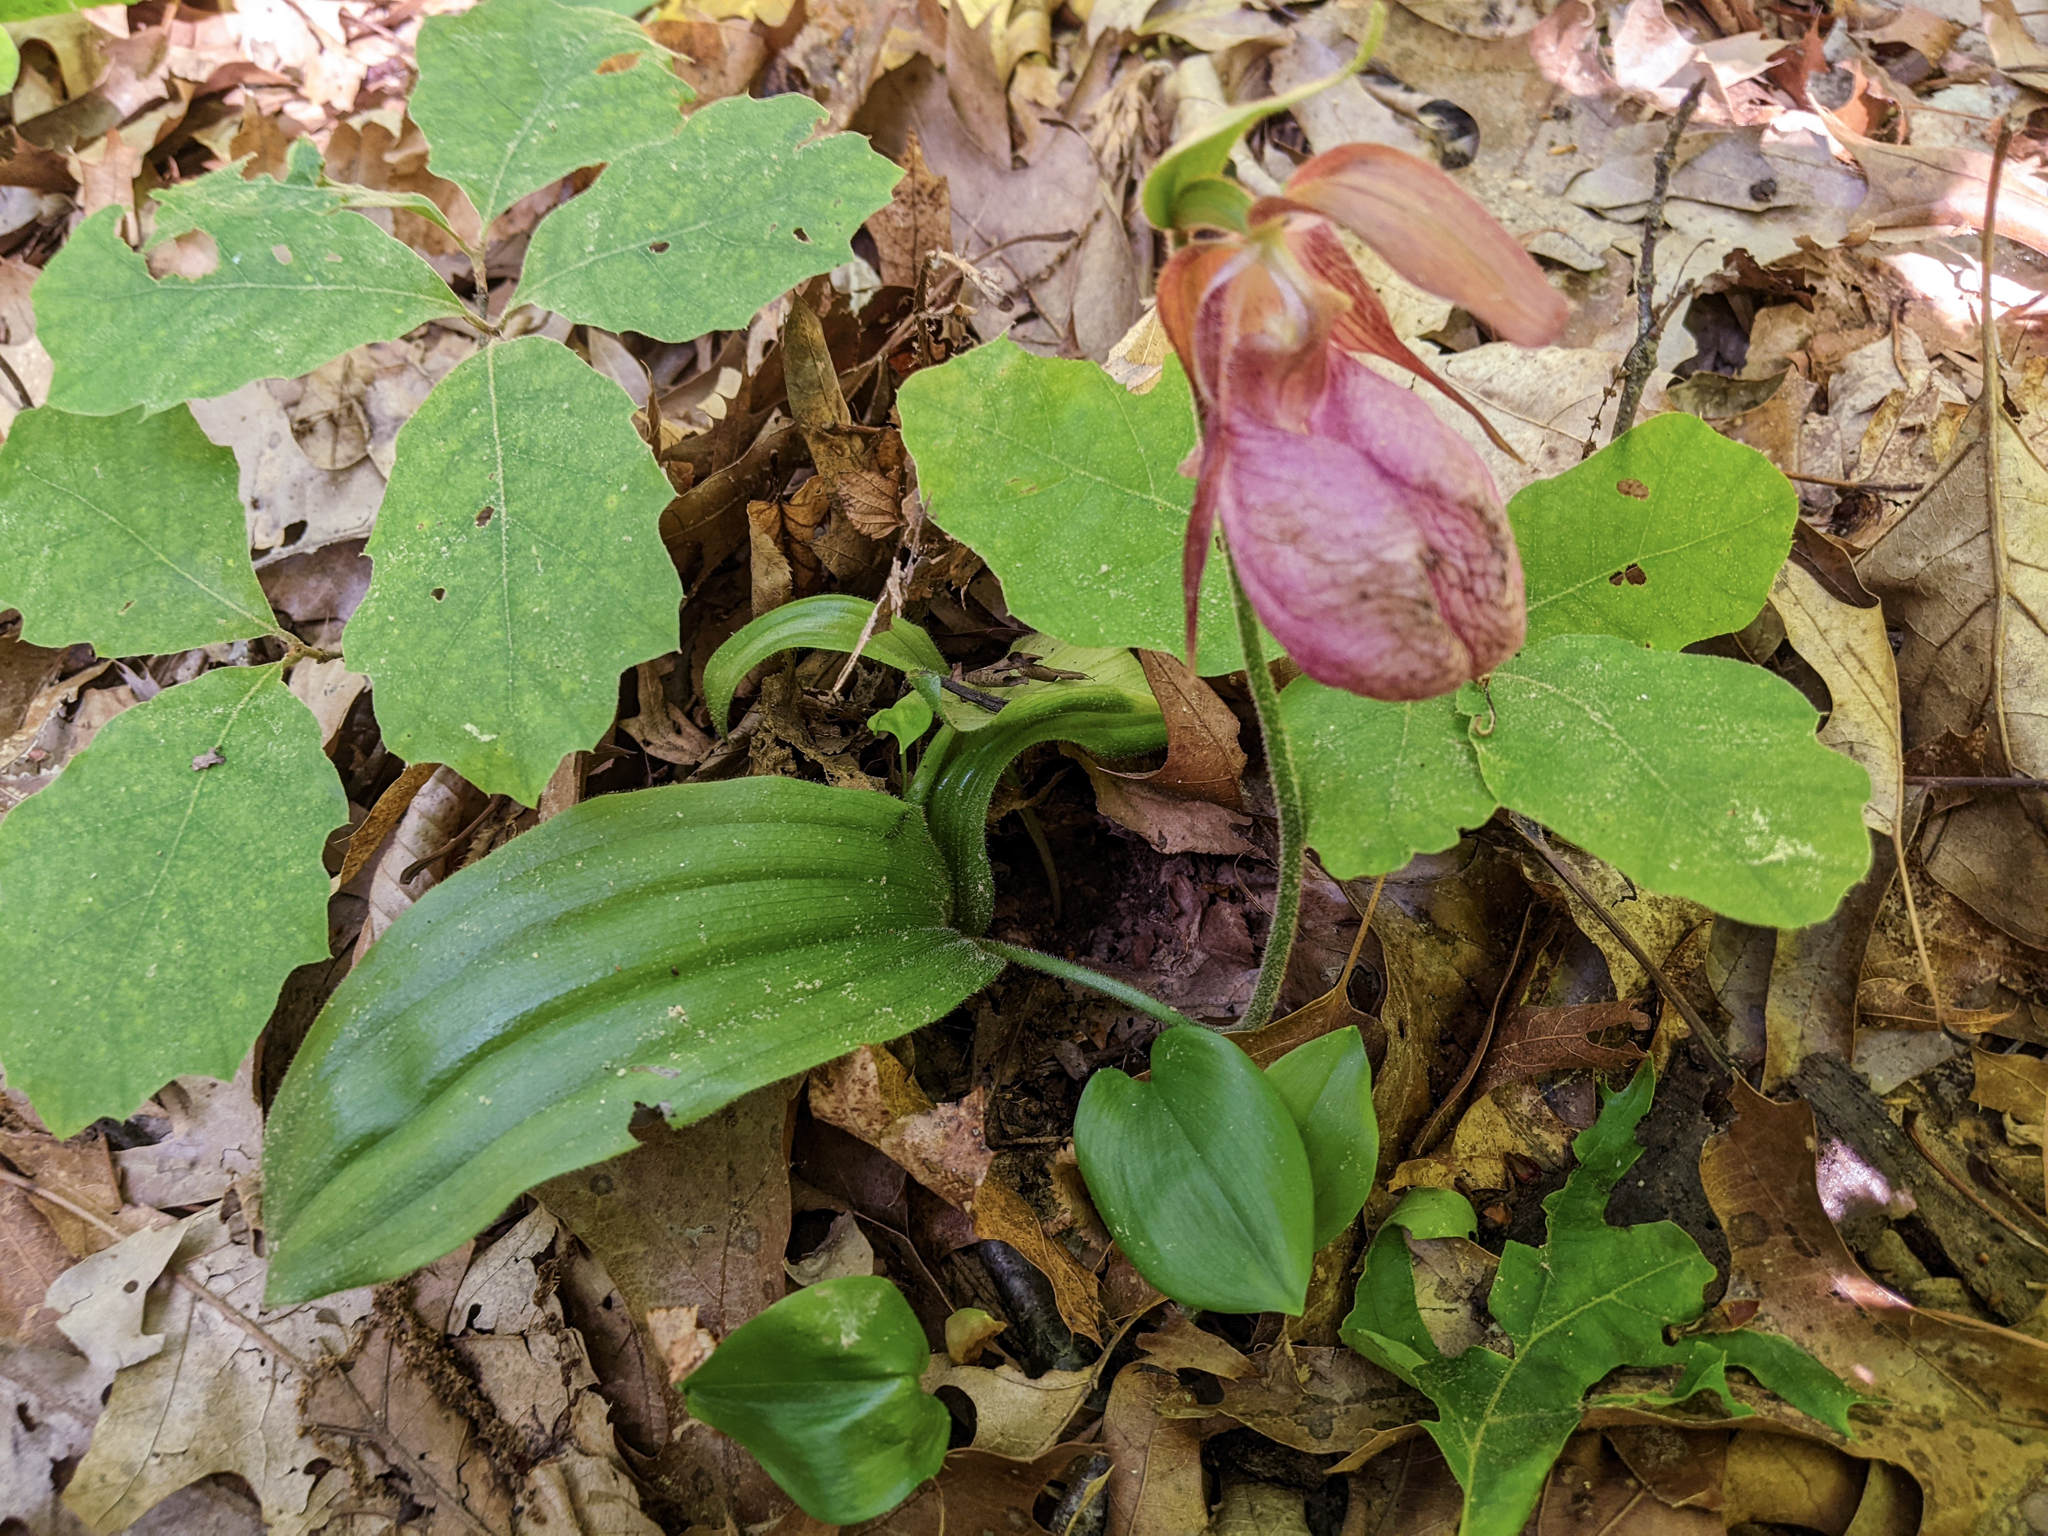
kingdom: Plantae
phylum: Tracheophyta
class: Liliopsida
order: Asparagales
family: Orchidaceae
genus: Cypripedium
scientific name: Cypripedium acaule
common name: Pink lady's-slipper
